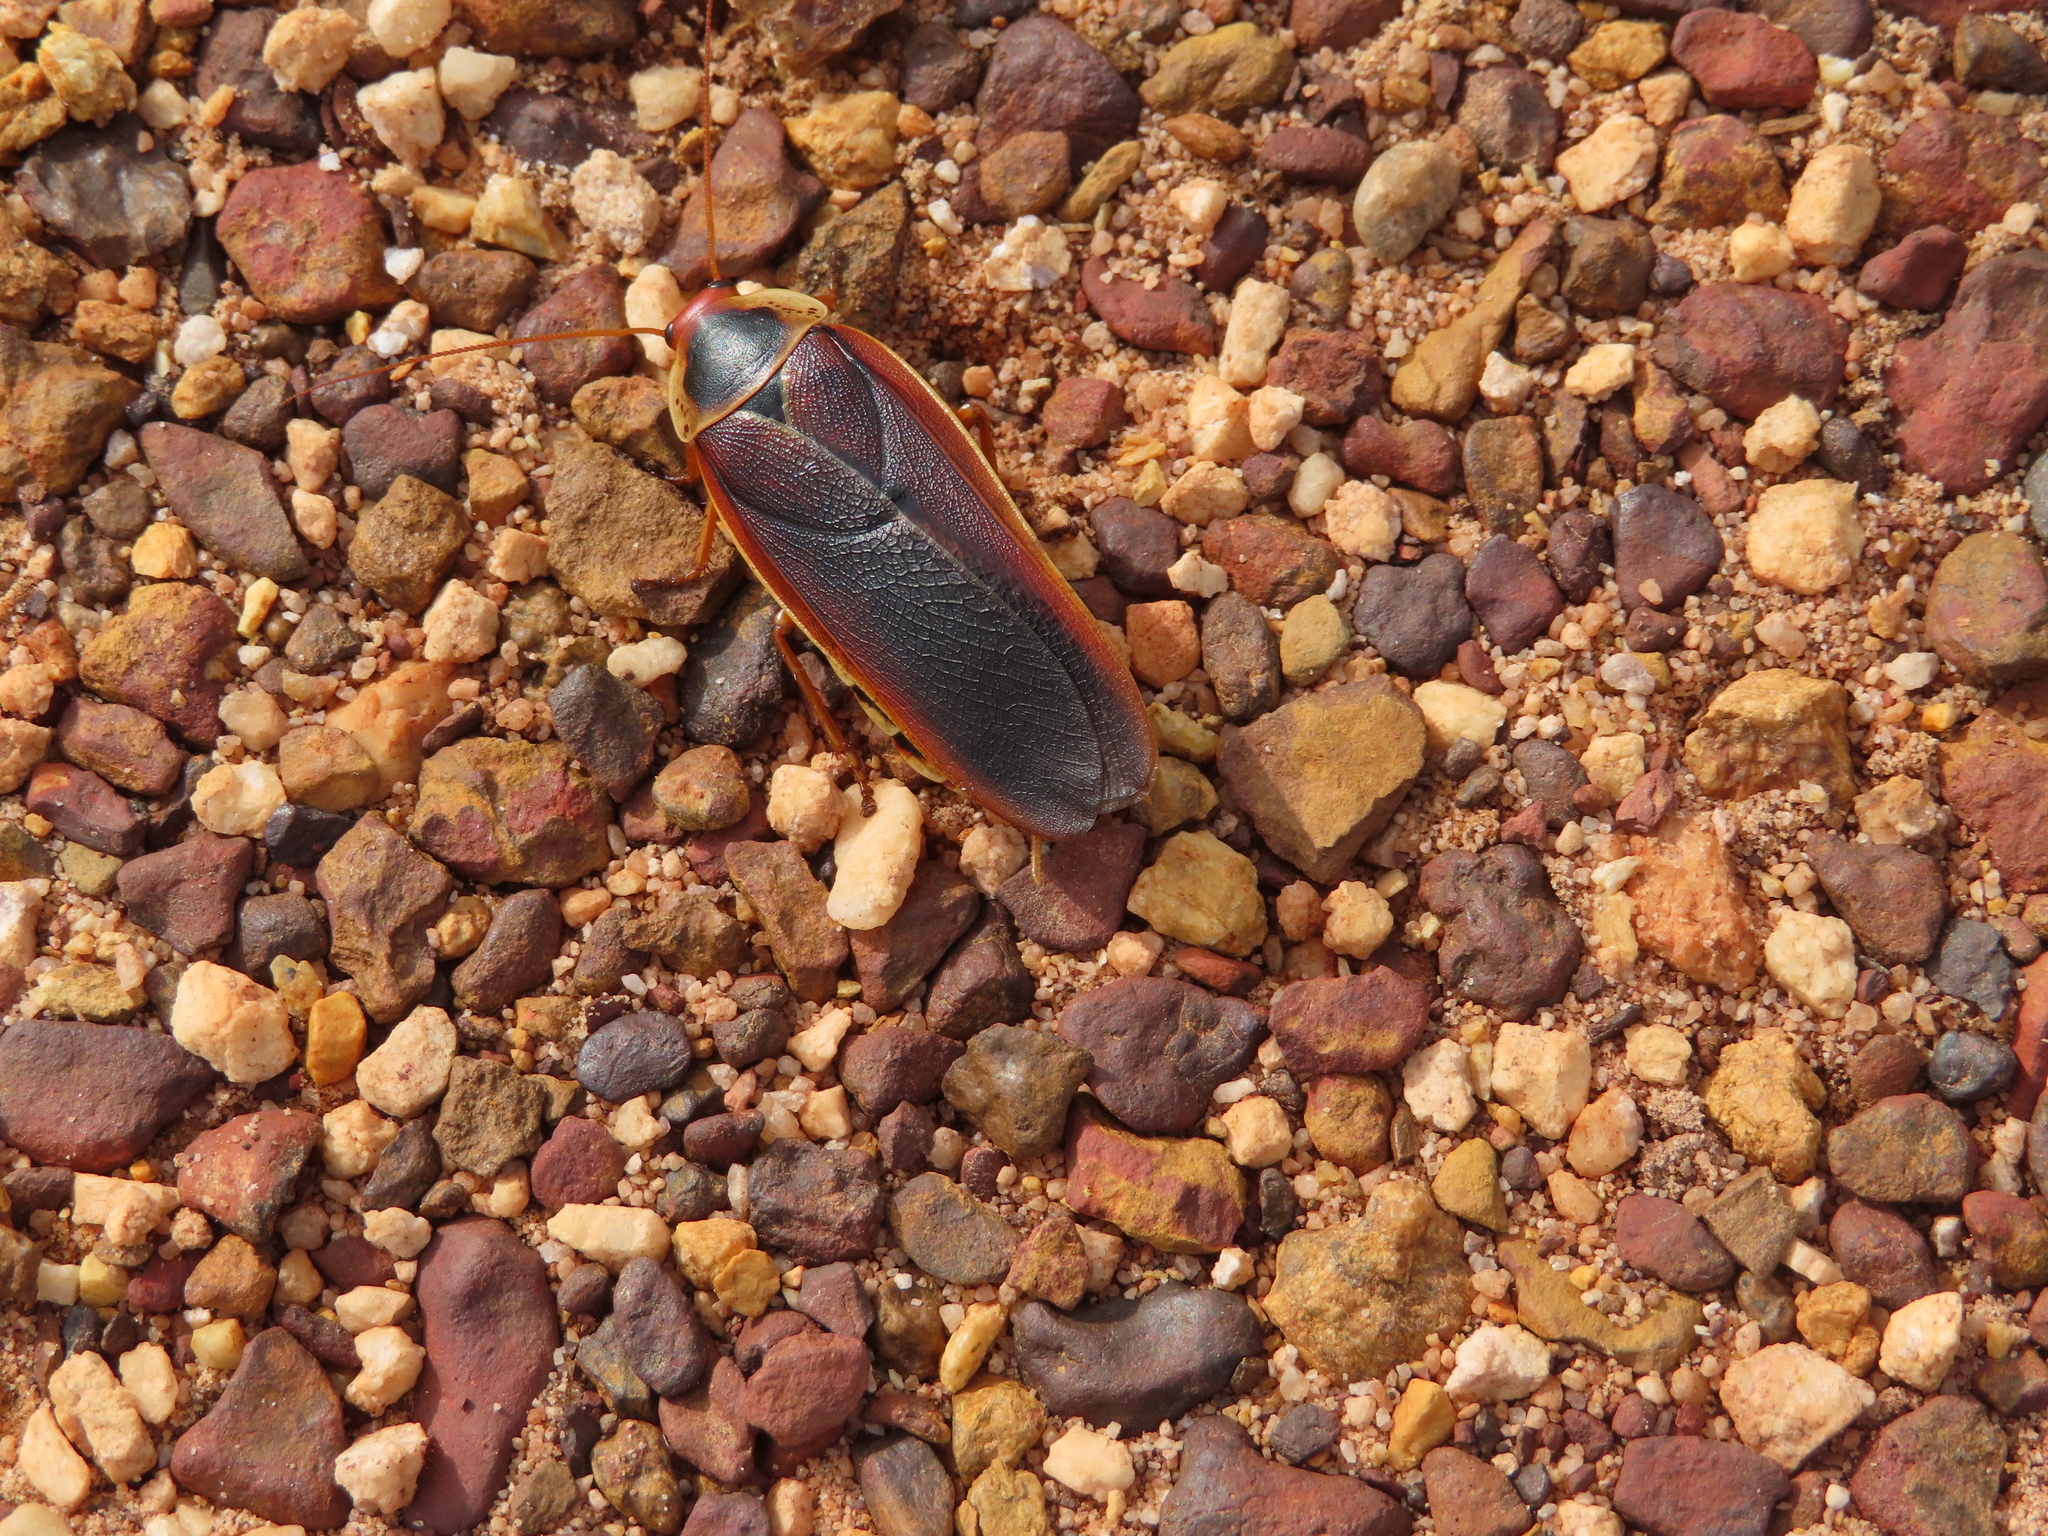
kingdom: Animalia
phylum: Arthropoda
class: Insecta
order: Blattodea
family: Blaberidae
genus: Aptera
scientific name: Aptera fusca
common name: Cape mountain cockroach
